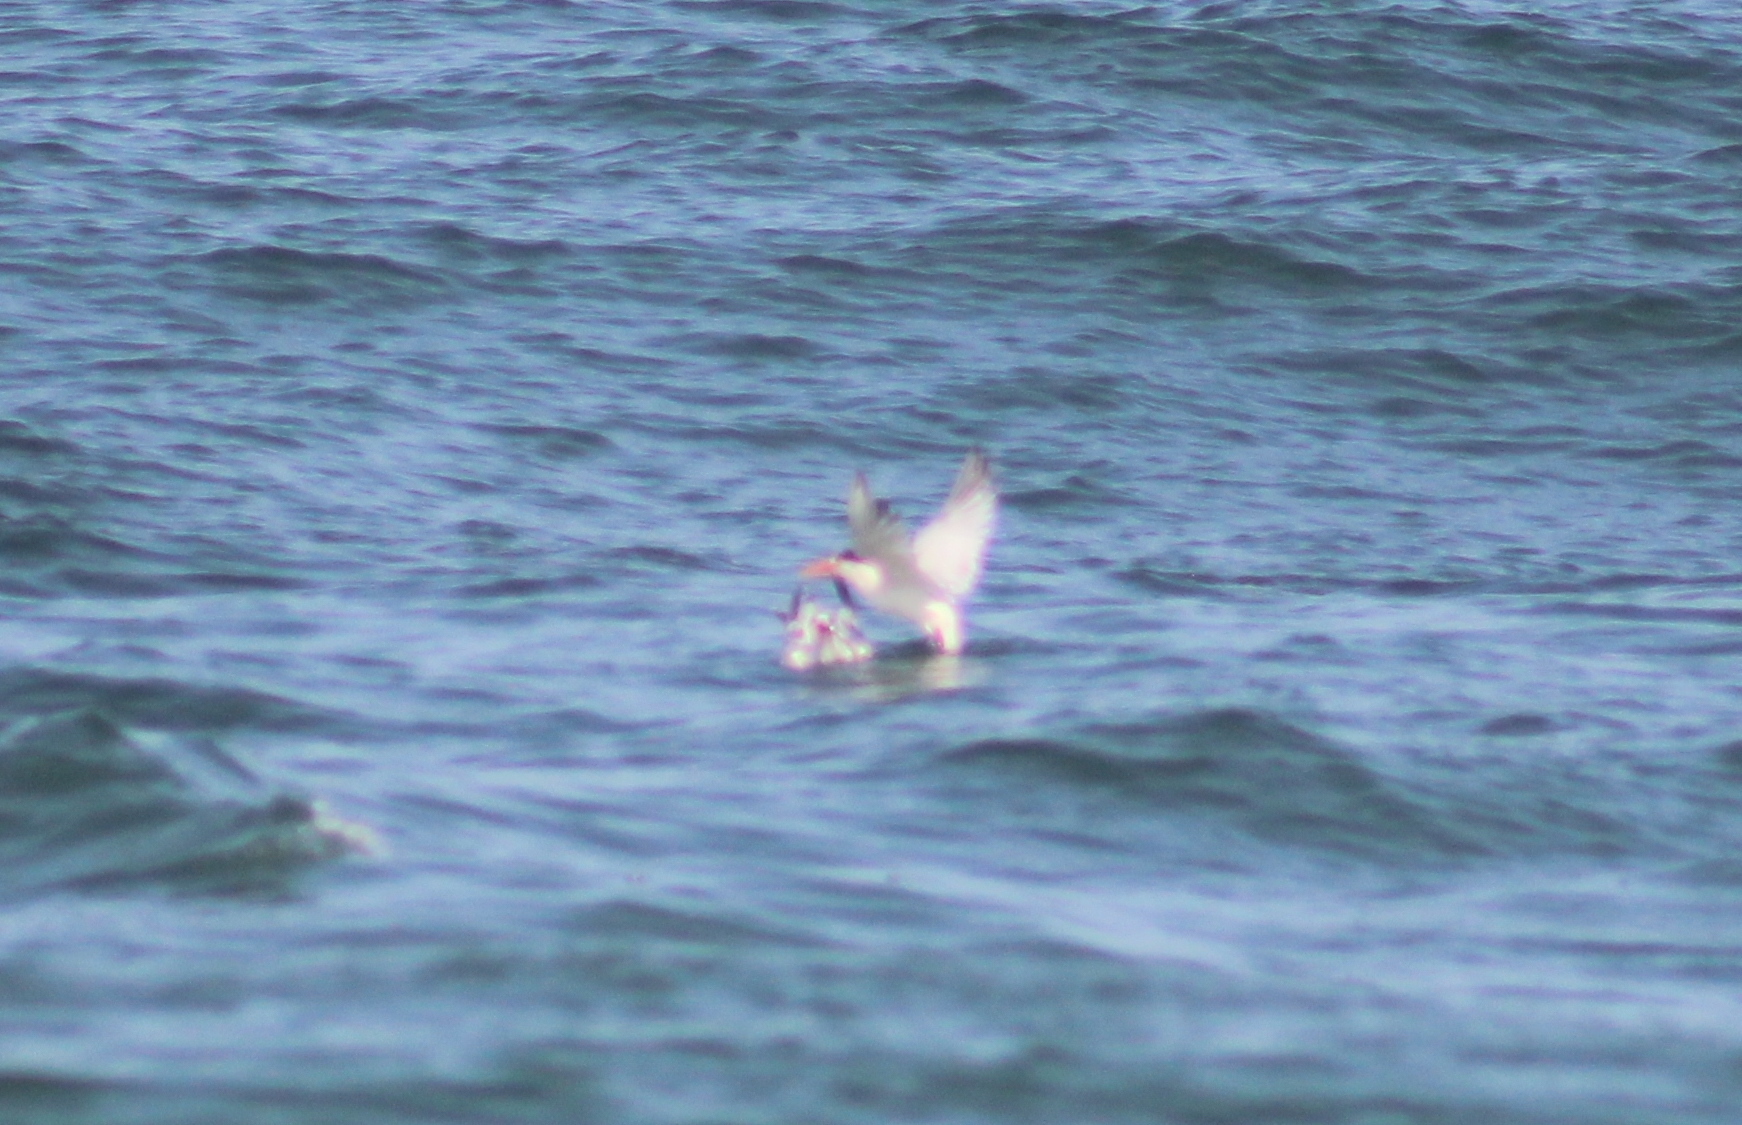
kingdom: Animalia
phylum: Chordata
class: Aves
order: Charadriiformes
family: Laridae
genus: Thalasseus
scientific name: Thalasseus elegans
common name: Elegant tern
